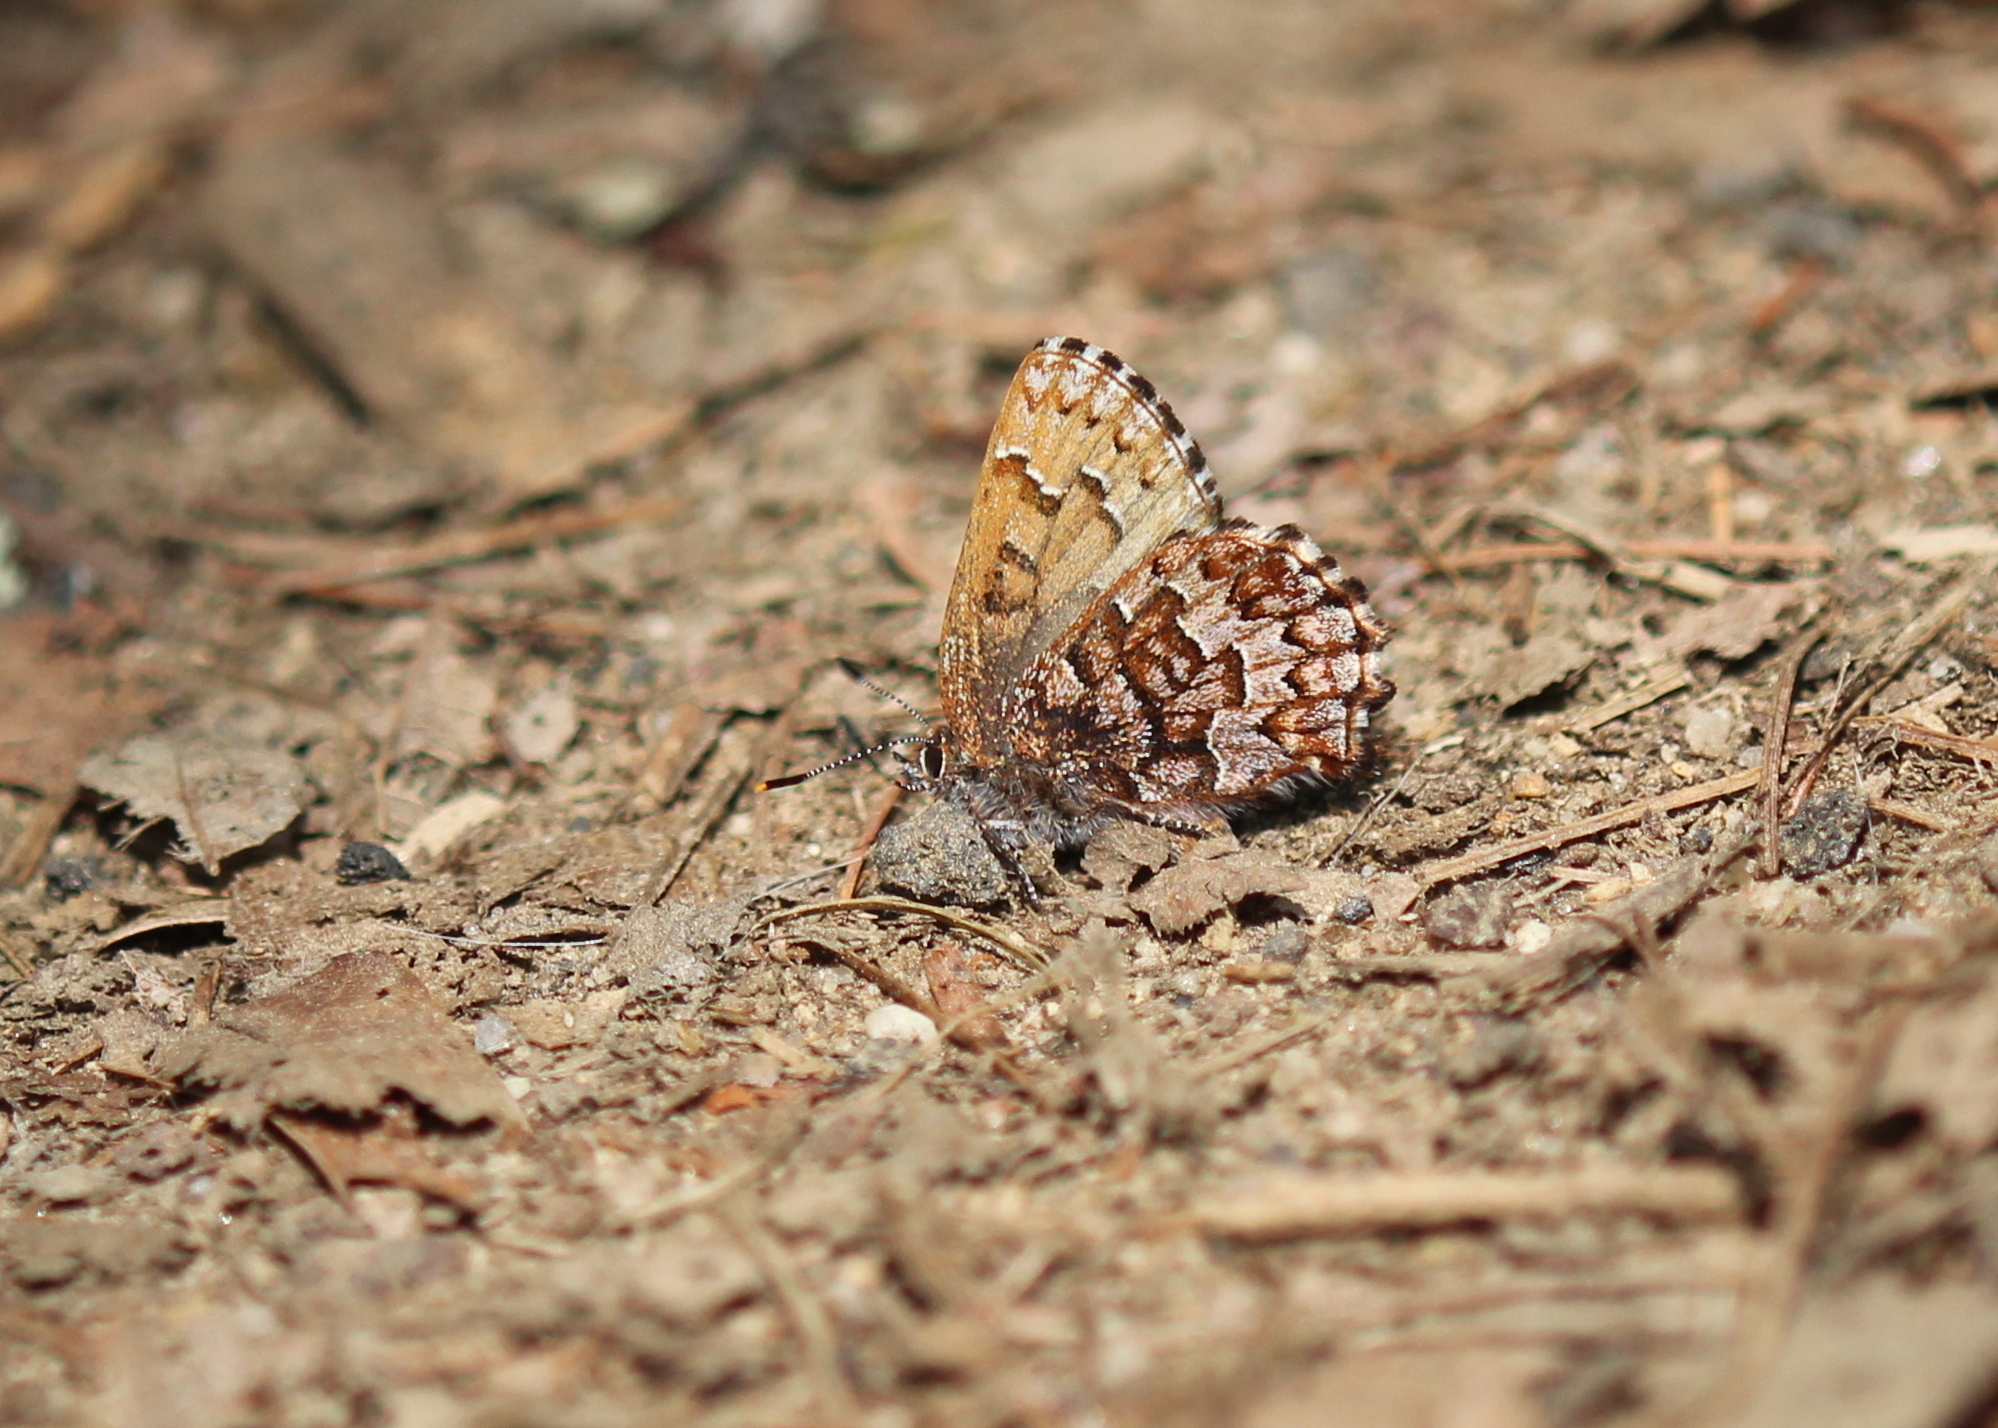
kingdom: Animalia
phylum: Arthropoda
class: Insecta
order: Lepidoptera
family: Lycaenidae
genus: Incisalia
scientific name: Incisalia niphon
